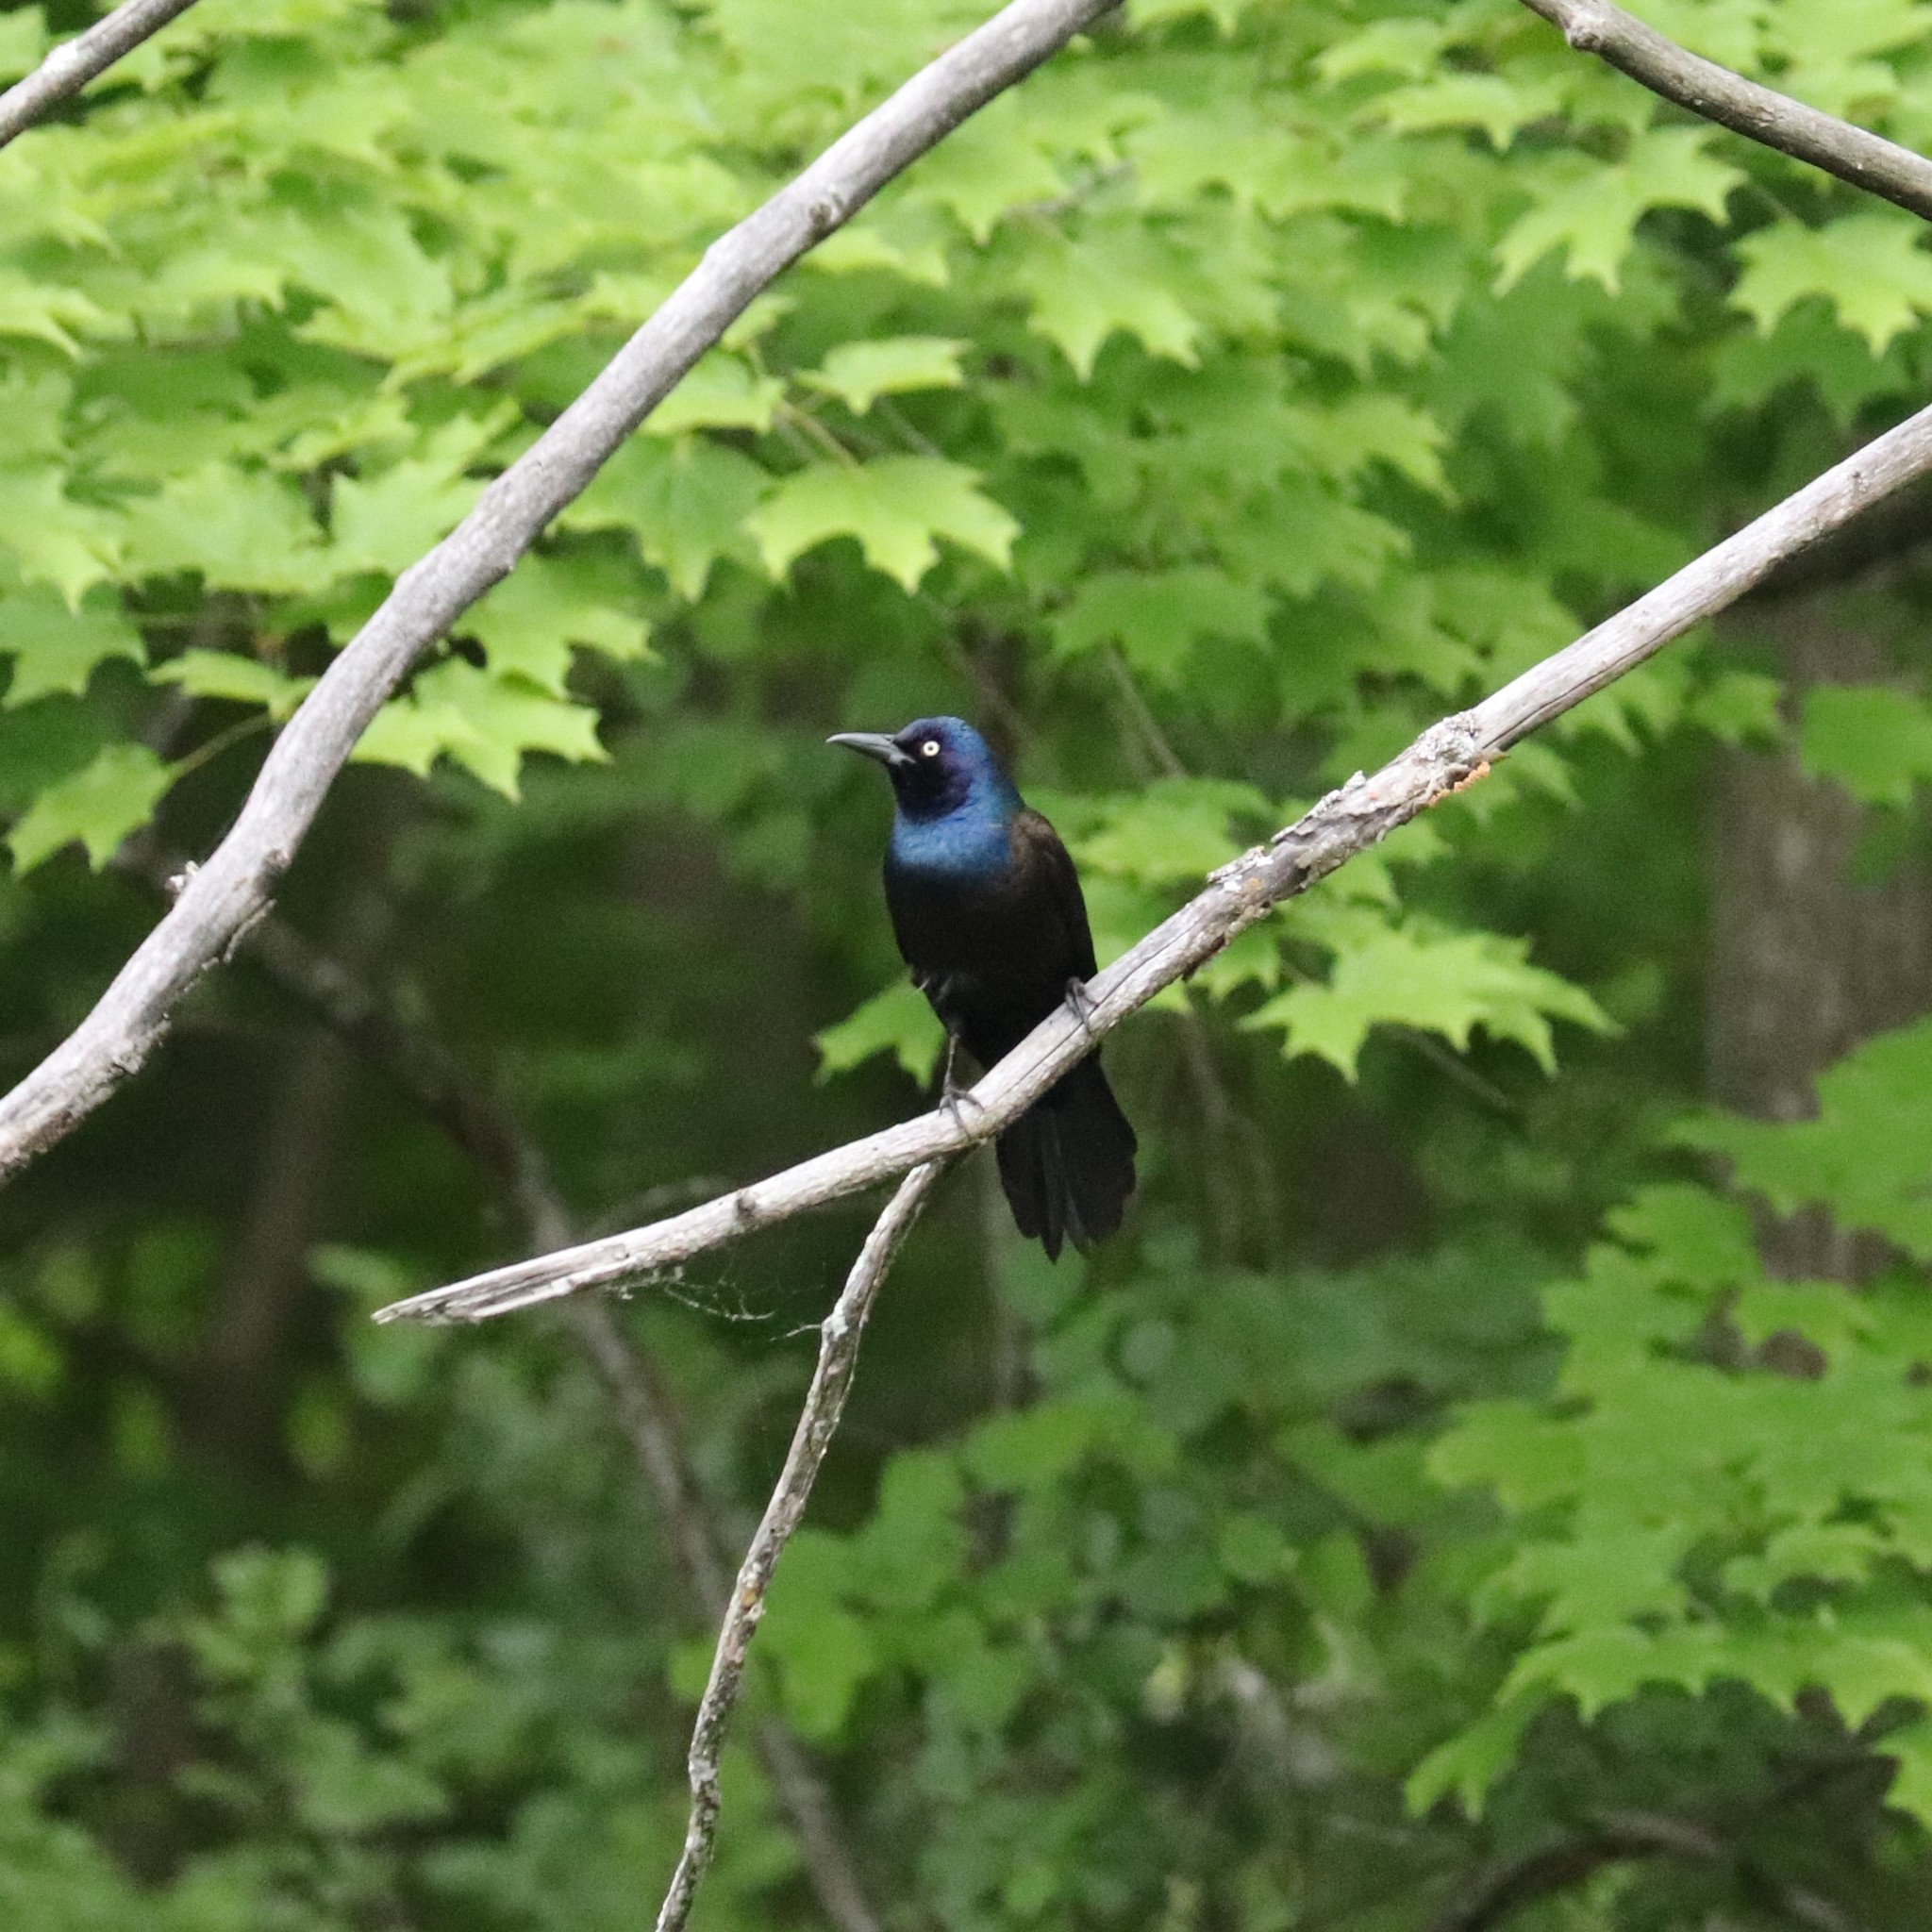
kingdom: Animalia
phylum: Chordata
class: Aves
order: Passeriformes
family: Icteridae
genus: Quiscalus
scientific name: Quiscalus quiscula
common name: Common grackle
